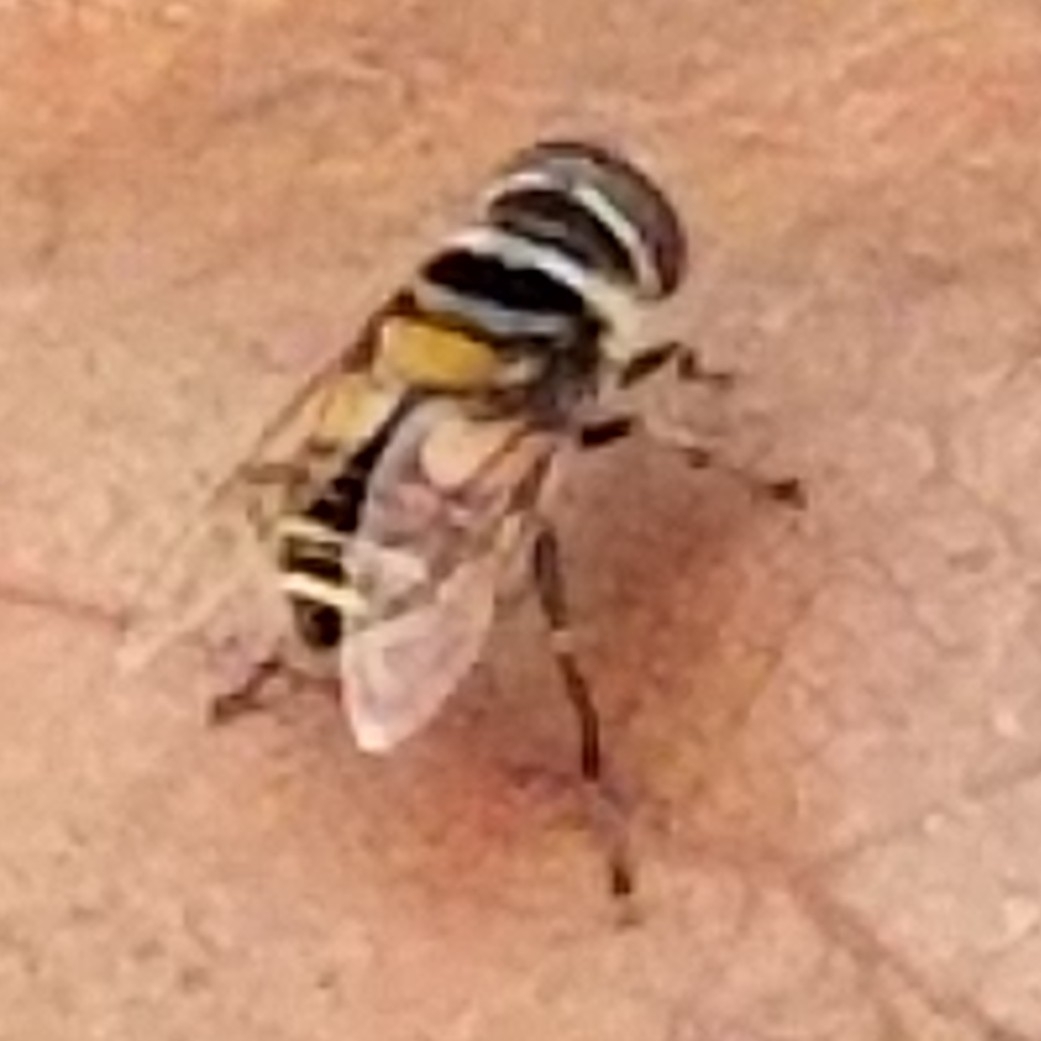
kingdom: Animalia
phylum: Arthropoda
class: Insecta
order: Diptera
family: Syrphidae
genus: Palpada
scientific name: Palpada agrorum
